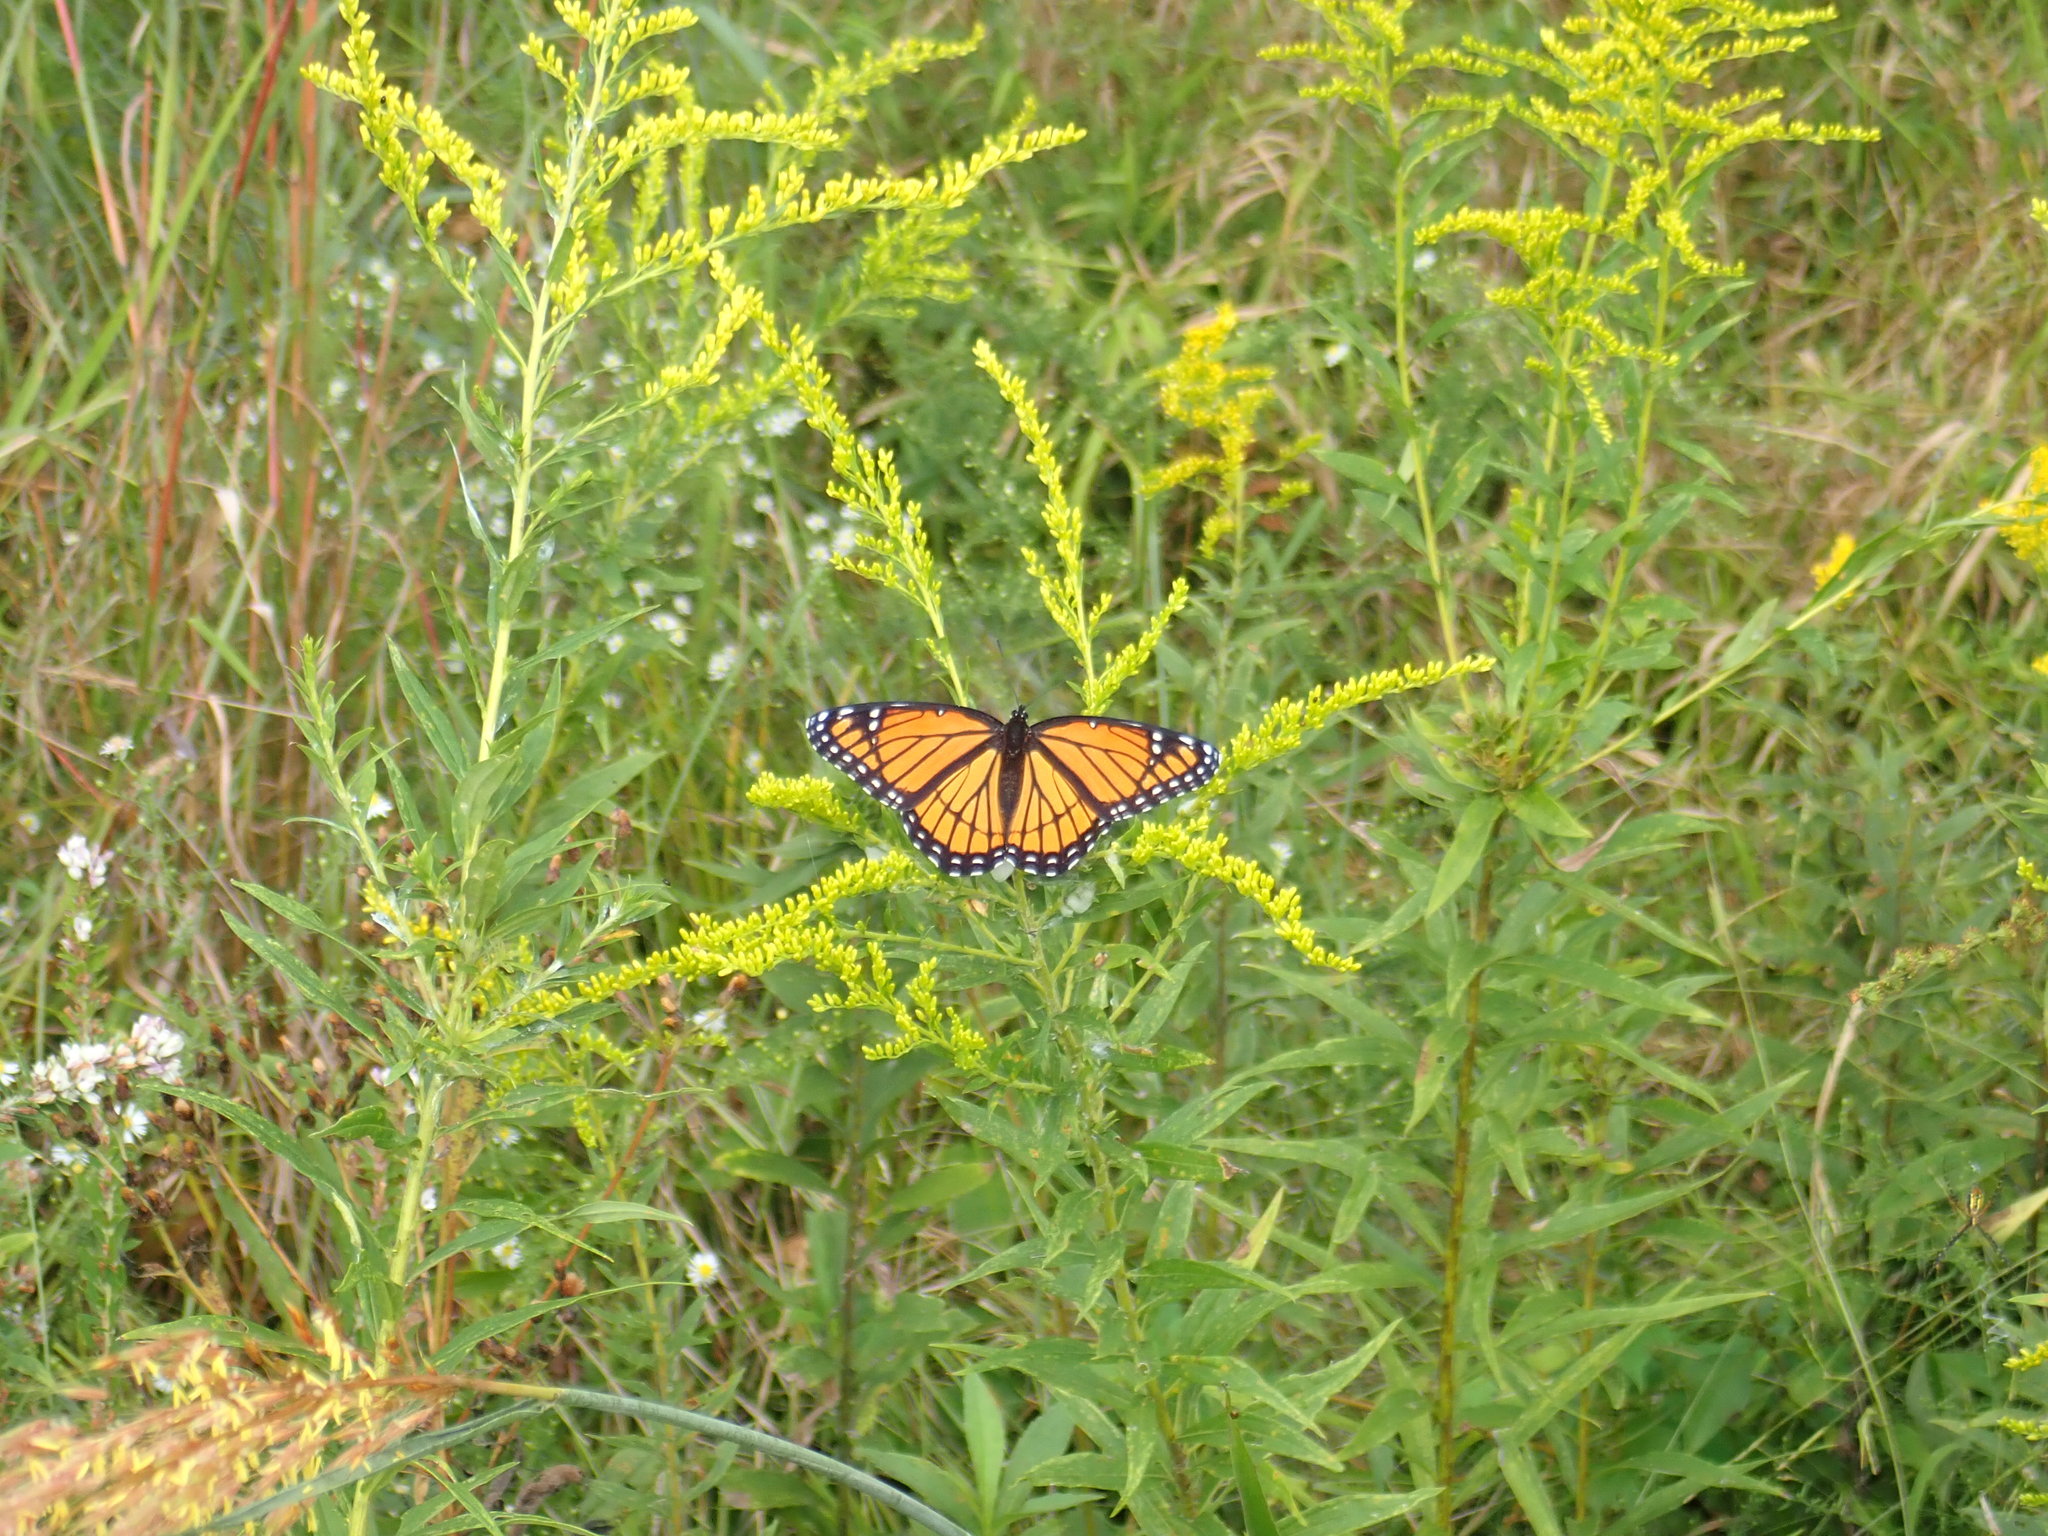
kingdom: Animalia
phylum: Arthropoda
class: Insecta
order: Lepidoptera
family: Nymphalidae
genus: Limenitis
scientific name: Limenitis archippus
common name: Viceroy
